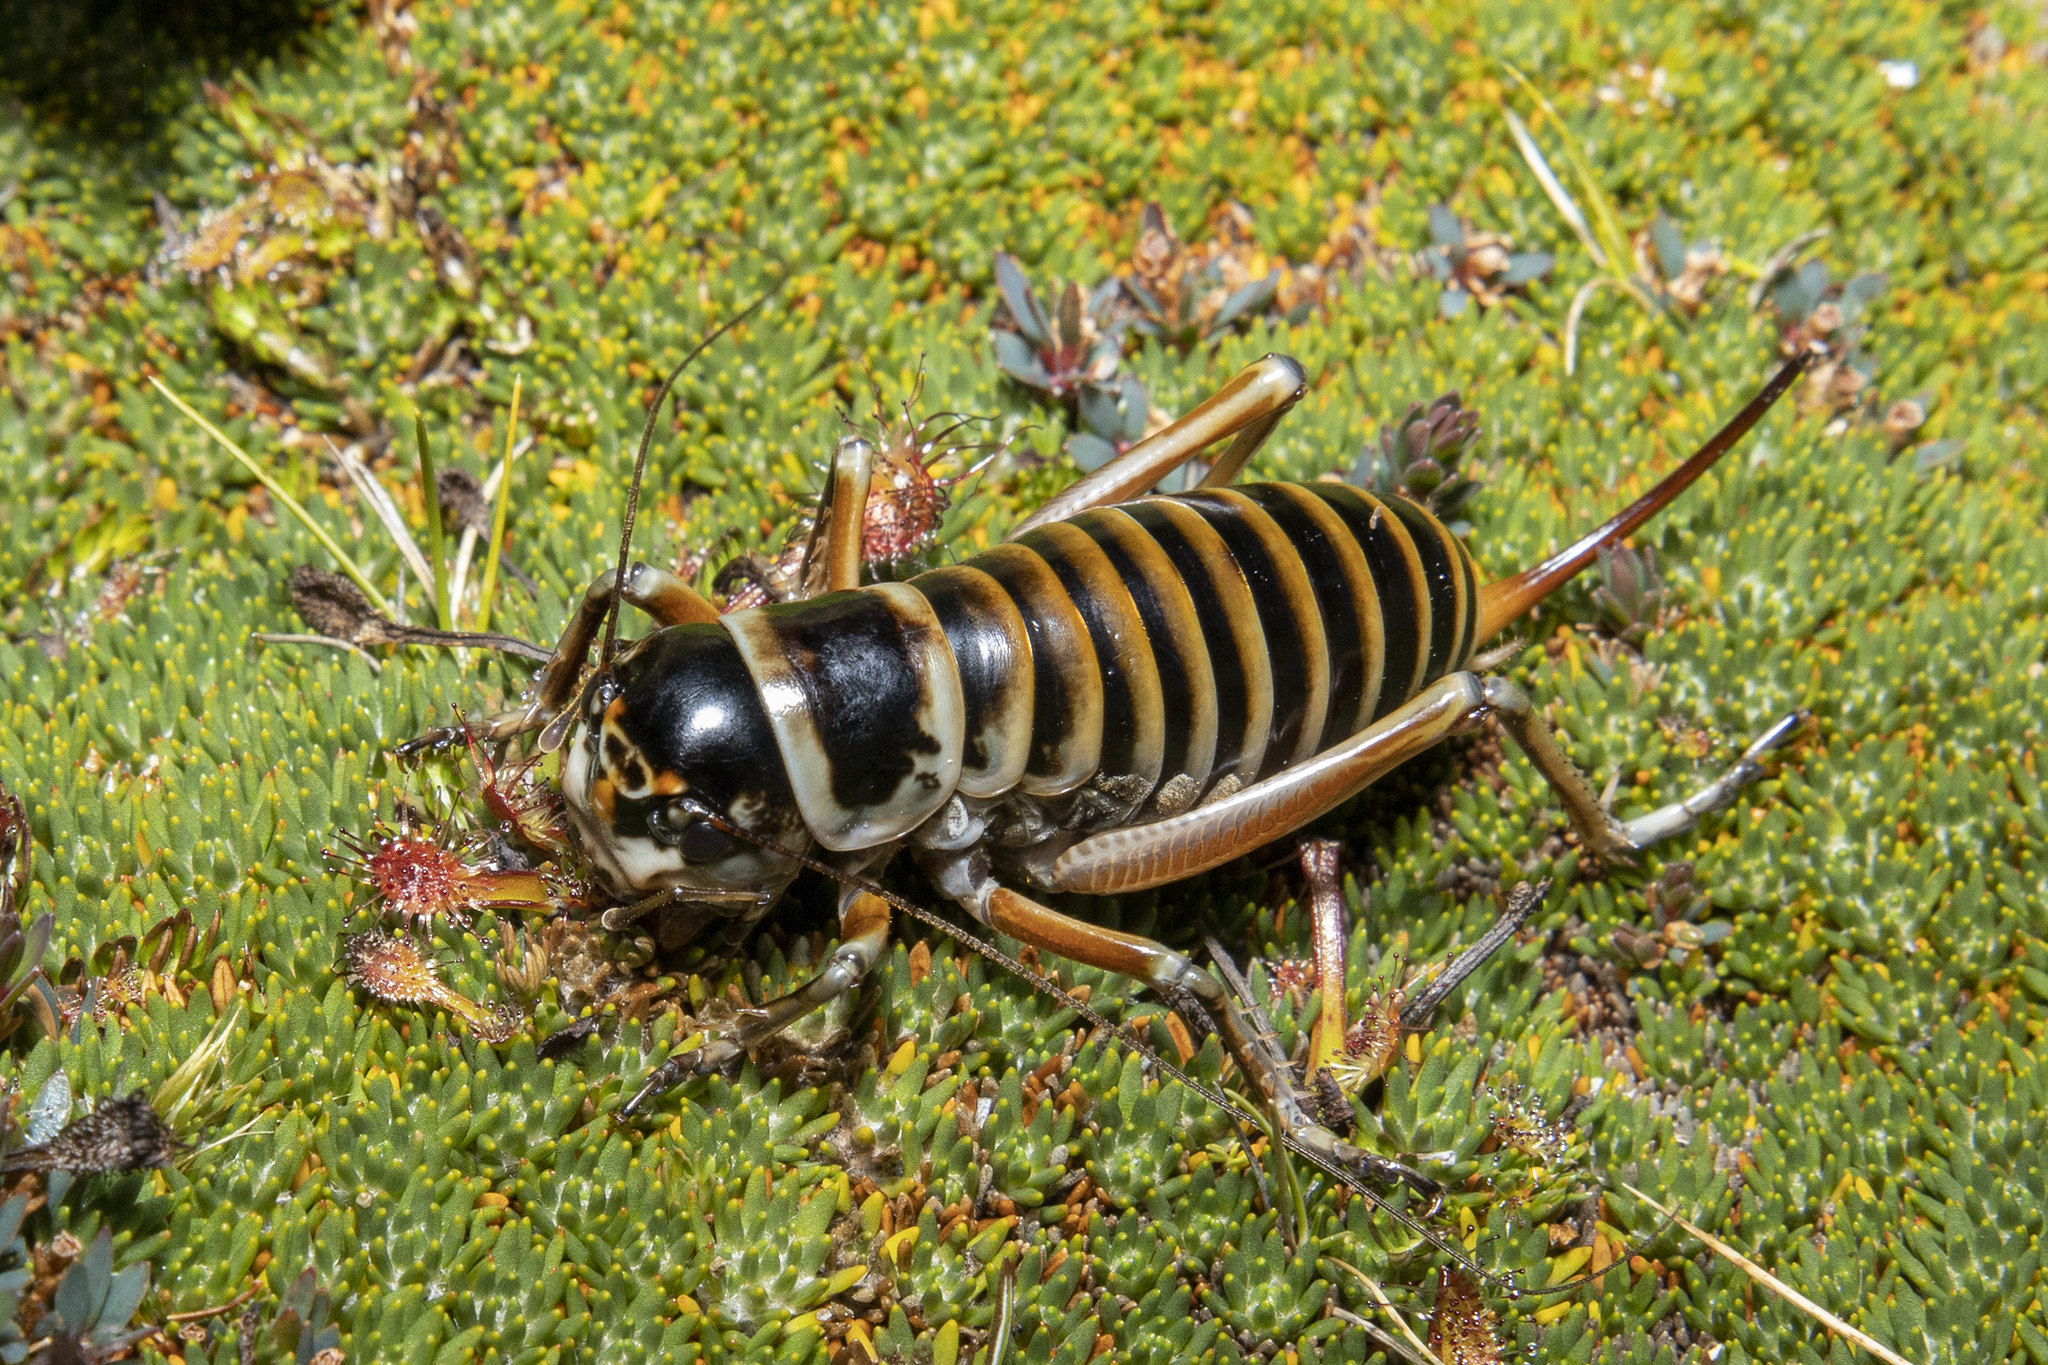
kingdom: Animalia
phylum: Arthropoda
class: Insecta
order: Orthoptera
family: Anostostomatidae
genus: Hemiandrus
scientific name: Hemiandrus focalis
